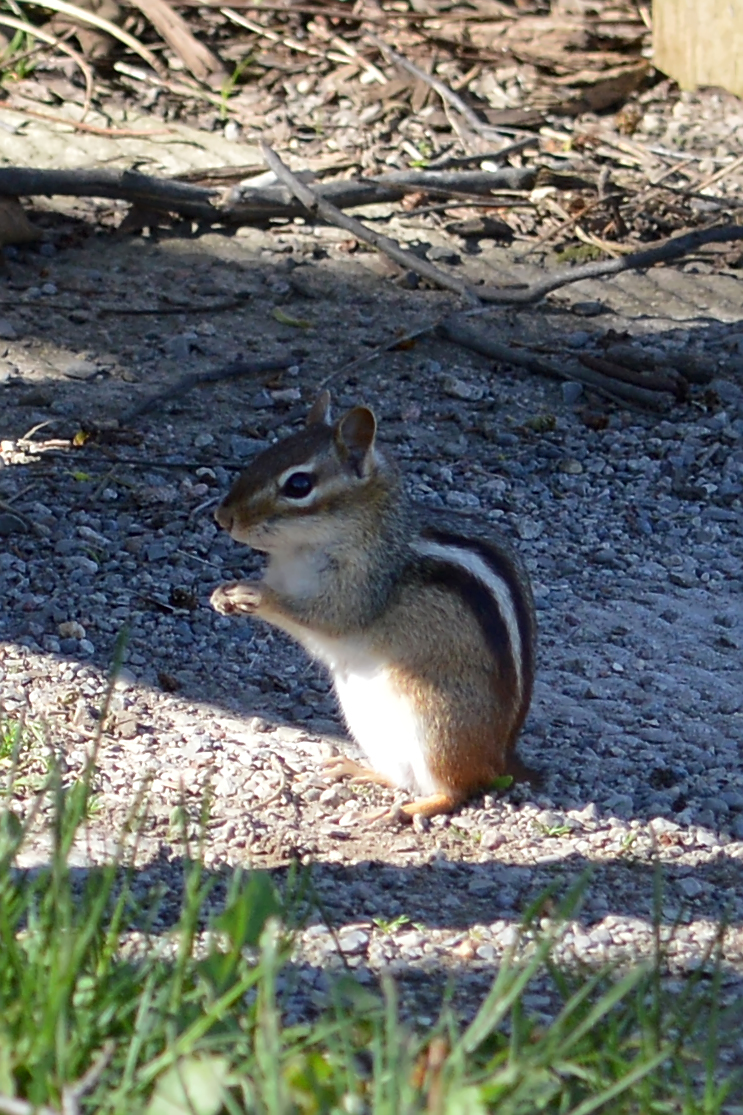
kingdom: Animalia
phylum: Chordata
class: Mammalia
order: Rodentia
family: Sciuridae
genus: Tamias
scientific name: Tamias striatus
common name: Eastern chipmunk
